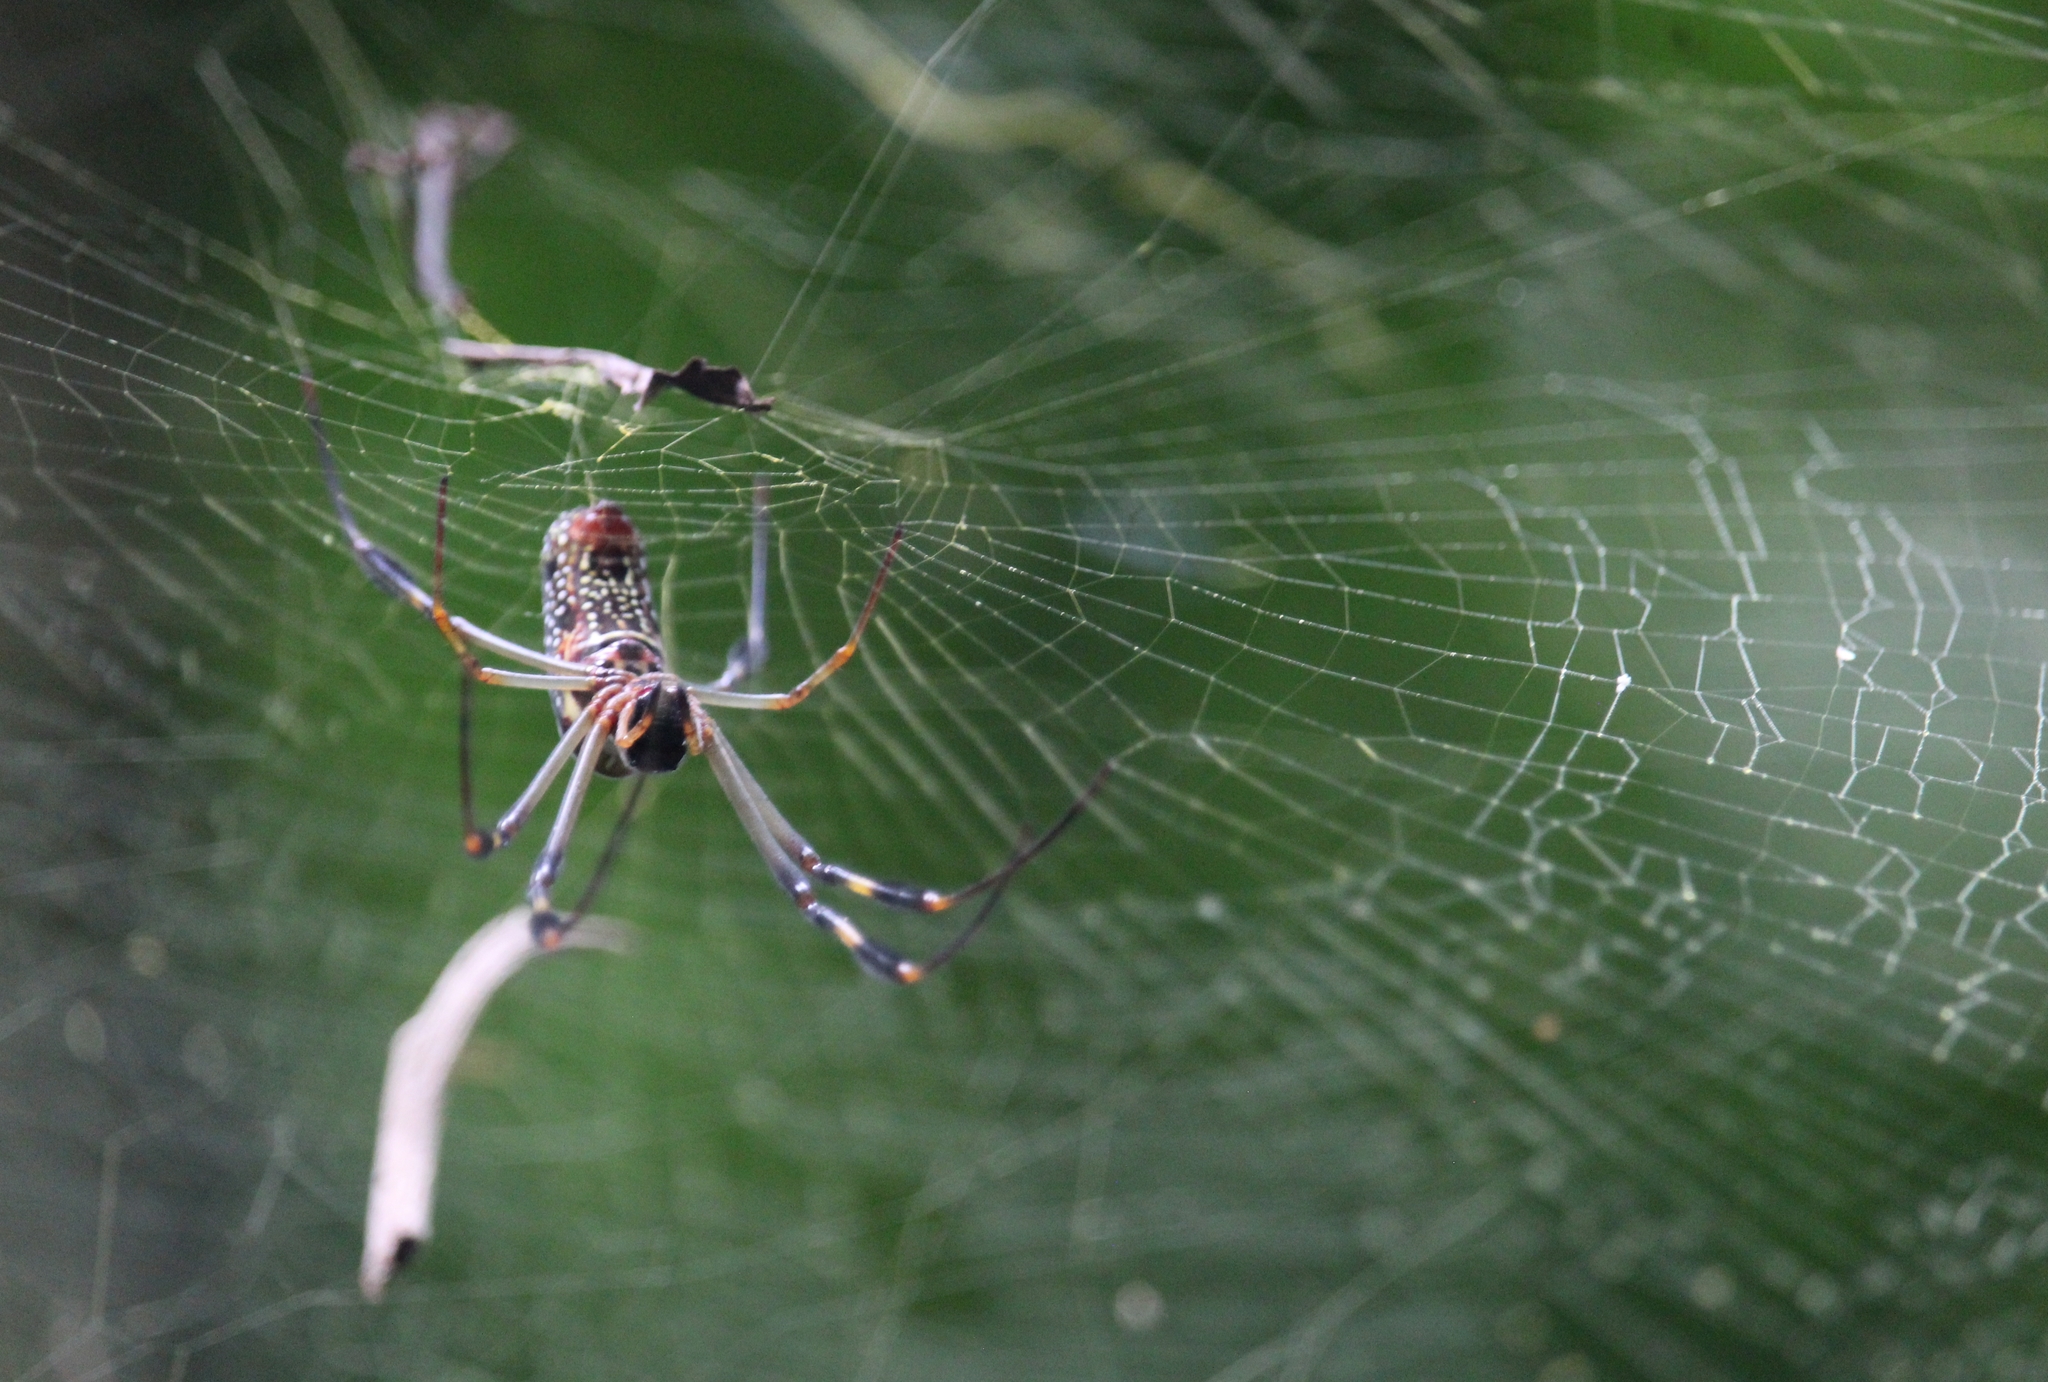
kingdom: Animalia
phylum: Arthropoda
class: Arachnida
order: Araneae
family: Araneidae
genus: Trichonephila
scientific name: Trichonephila clavipes
